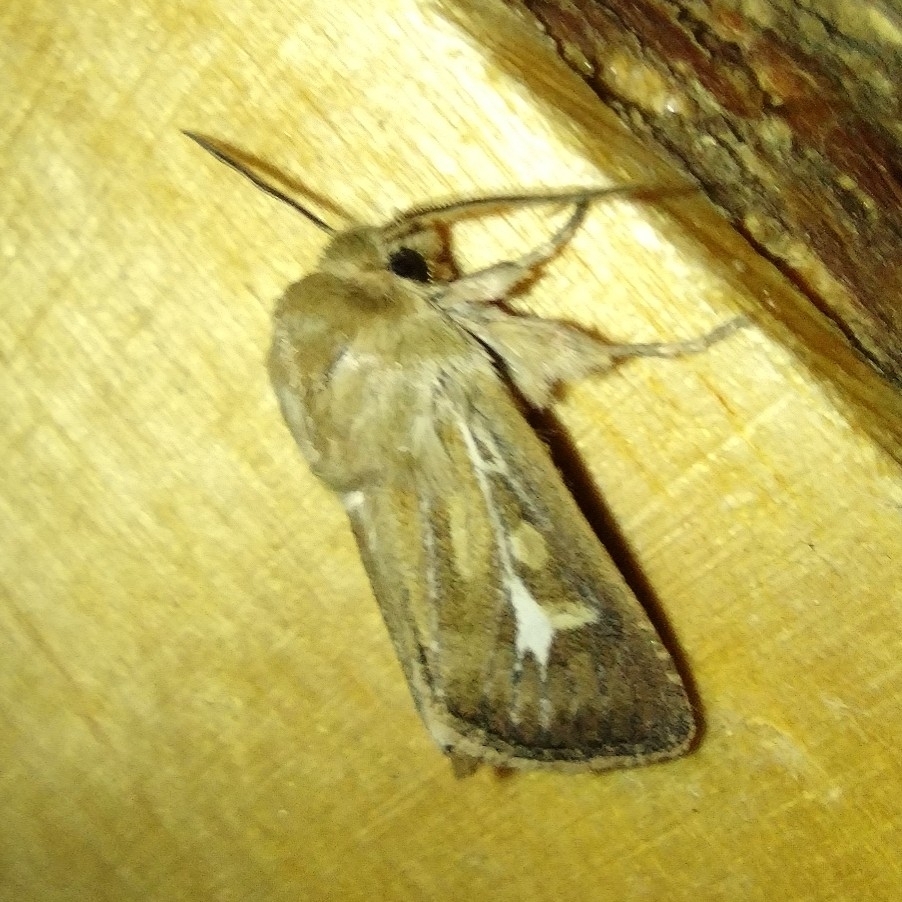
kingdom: Animalia
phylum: Arthropoda
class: Insecta
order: Lepidoptera
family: Noctuidae
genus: Cerapteryx
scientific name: Cerapteryx graminis
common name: Antler moth
